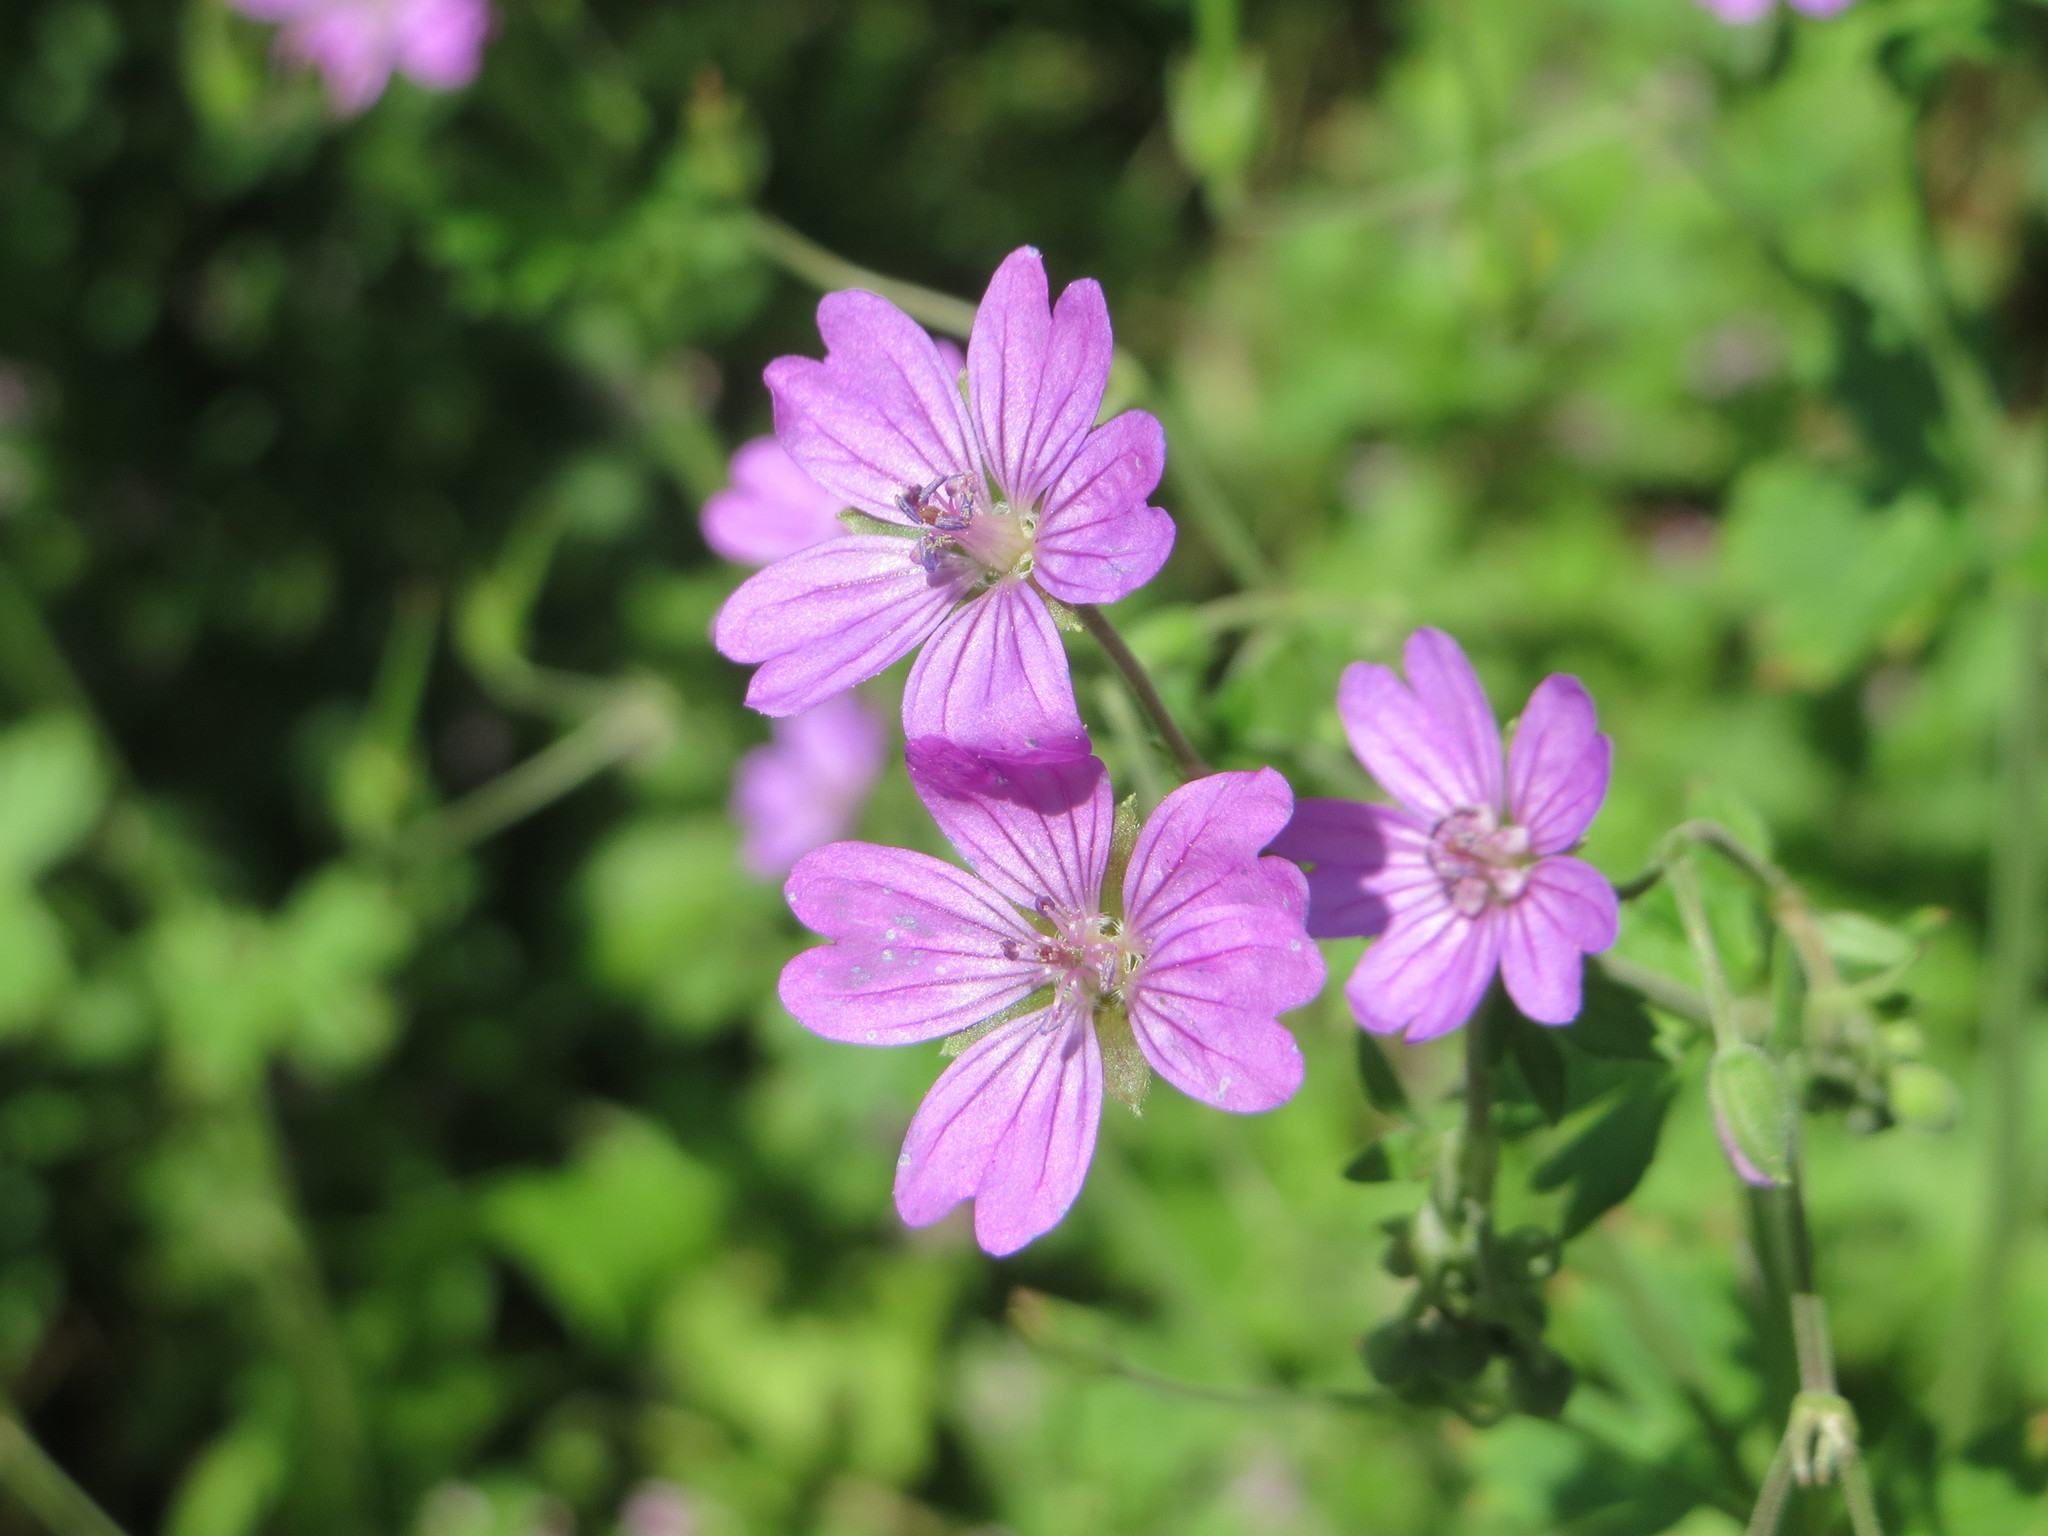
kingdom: Plantae
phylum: Tracheophyta
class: Magnoliopsida
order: Geraniales
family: Geraniaceae
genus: Geranium
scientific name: Geranium pyrenaicum
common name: Hedgerow crane's-bill
